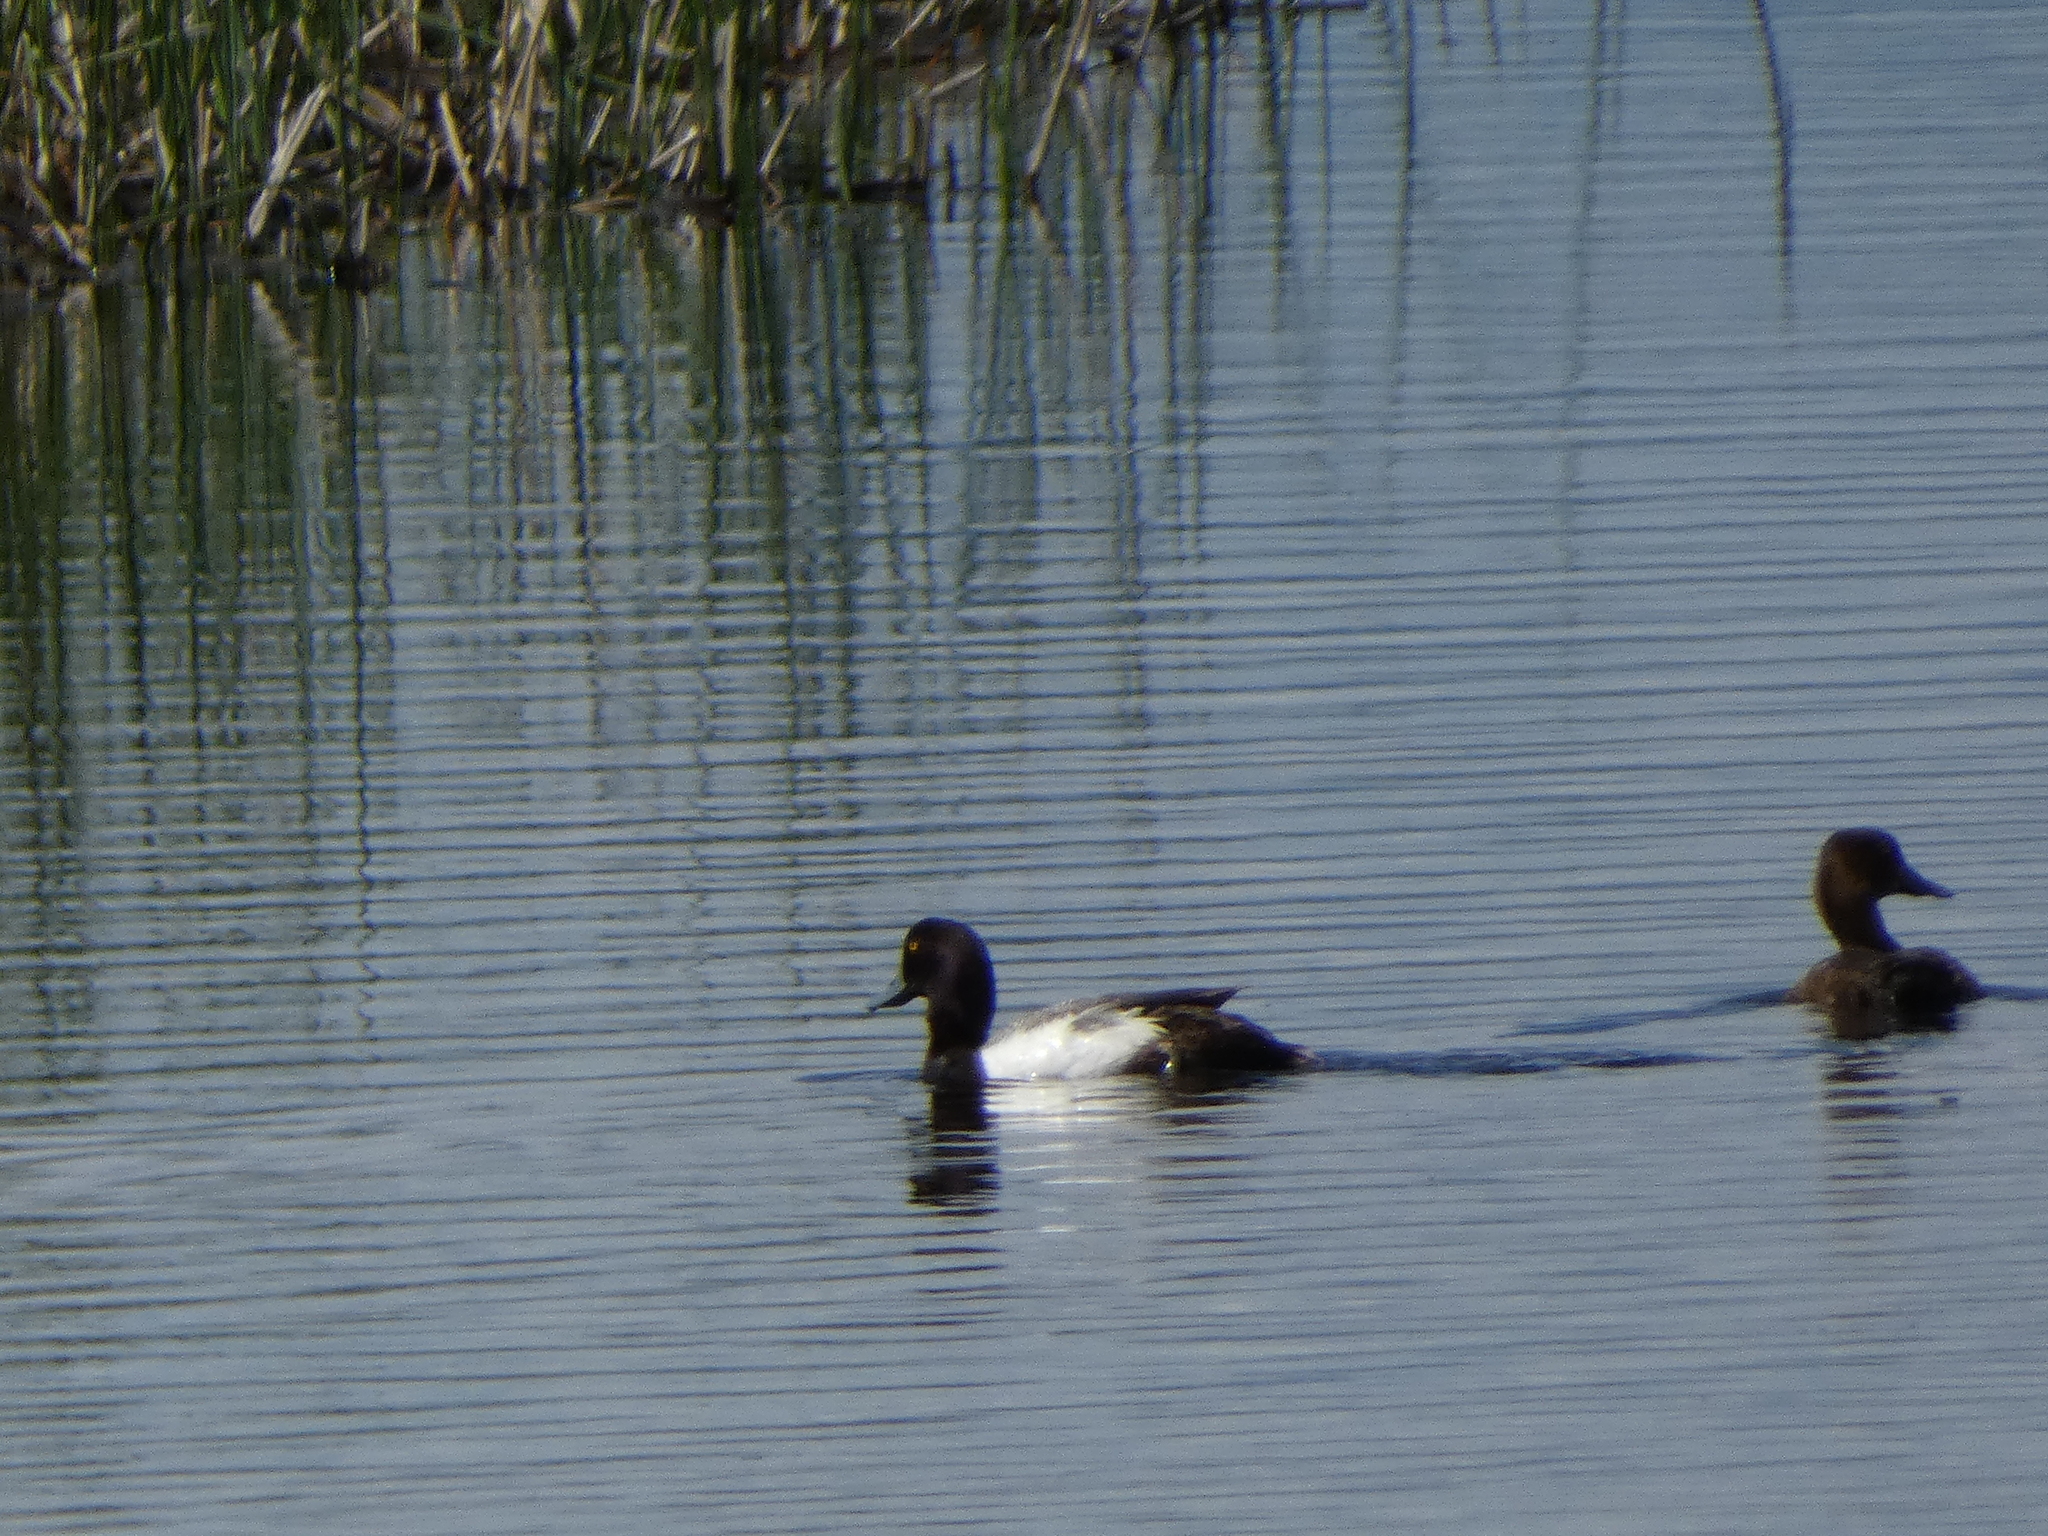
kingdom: Animalia
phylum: Chordata
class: Aves
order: Anseriformes
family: Anatidae
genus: Aythya
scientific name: Aythya affinis
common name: Lesser scaup
